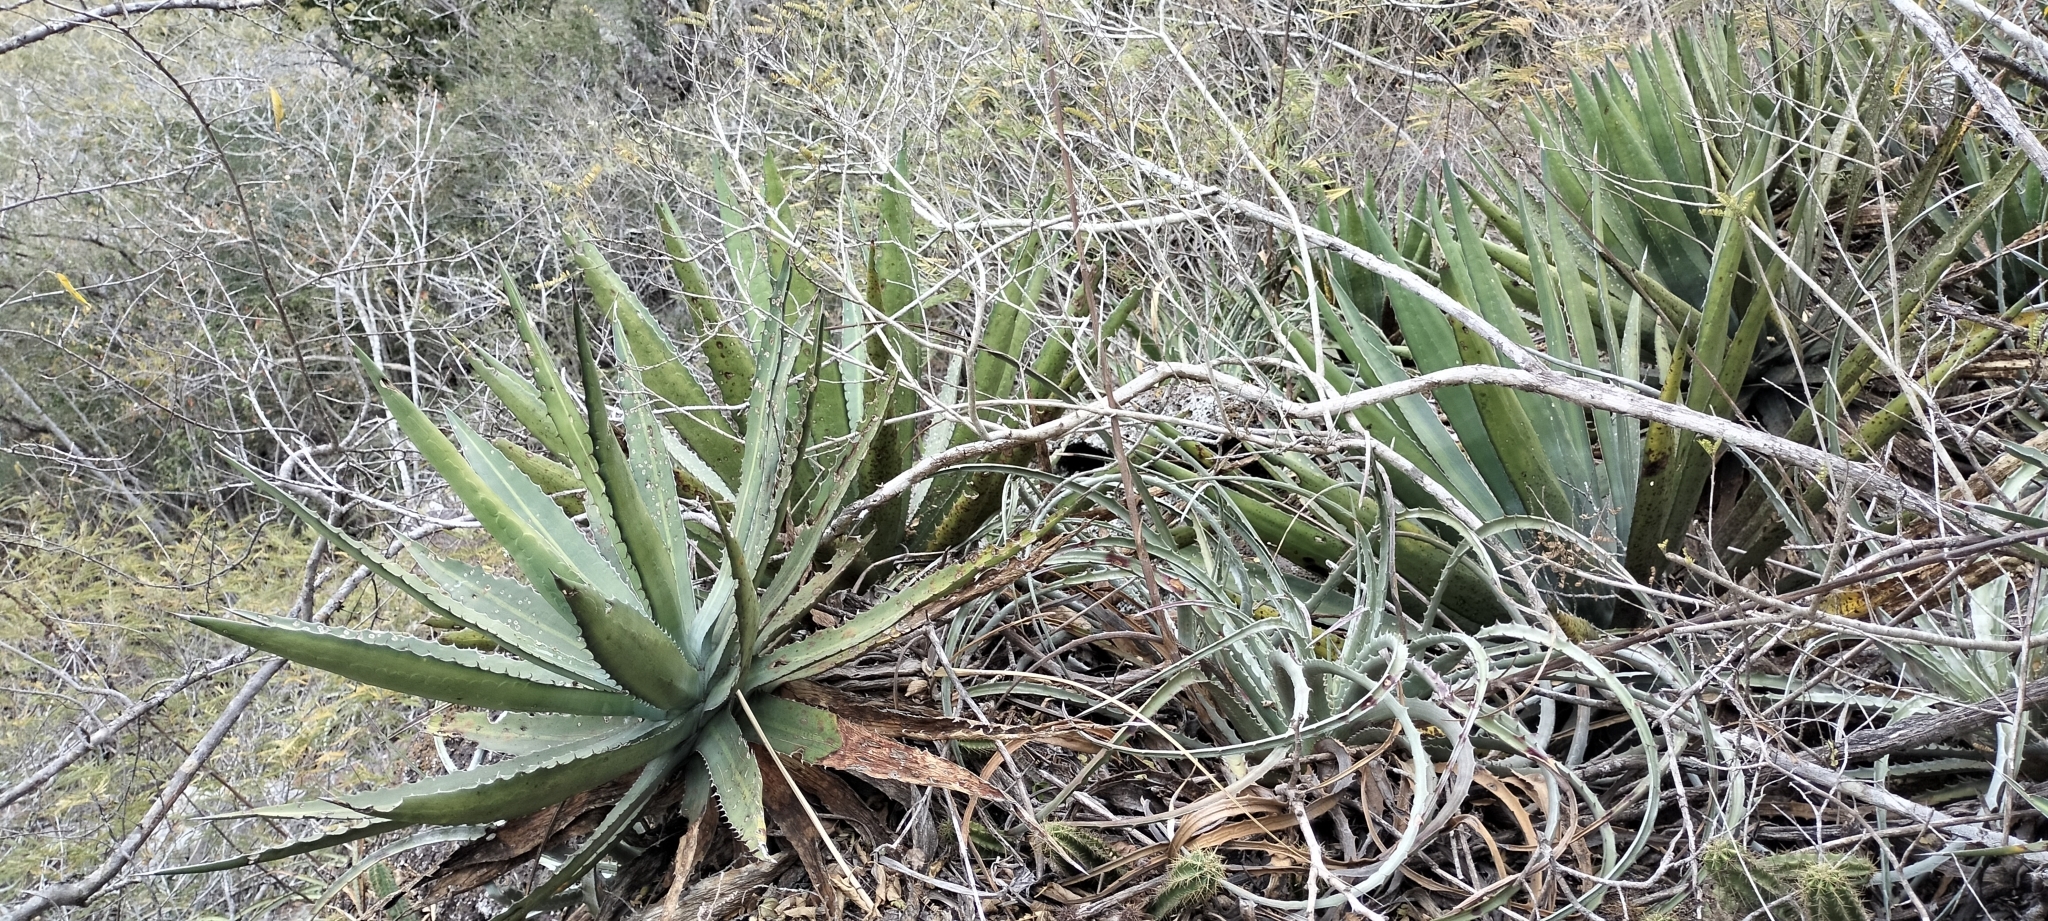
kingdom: Plantae
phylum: Tracheophyta
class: Liliopsida
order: Asparagales
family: Asparagaceae
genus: Agave
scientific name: Agave funkiana
